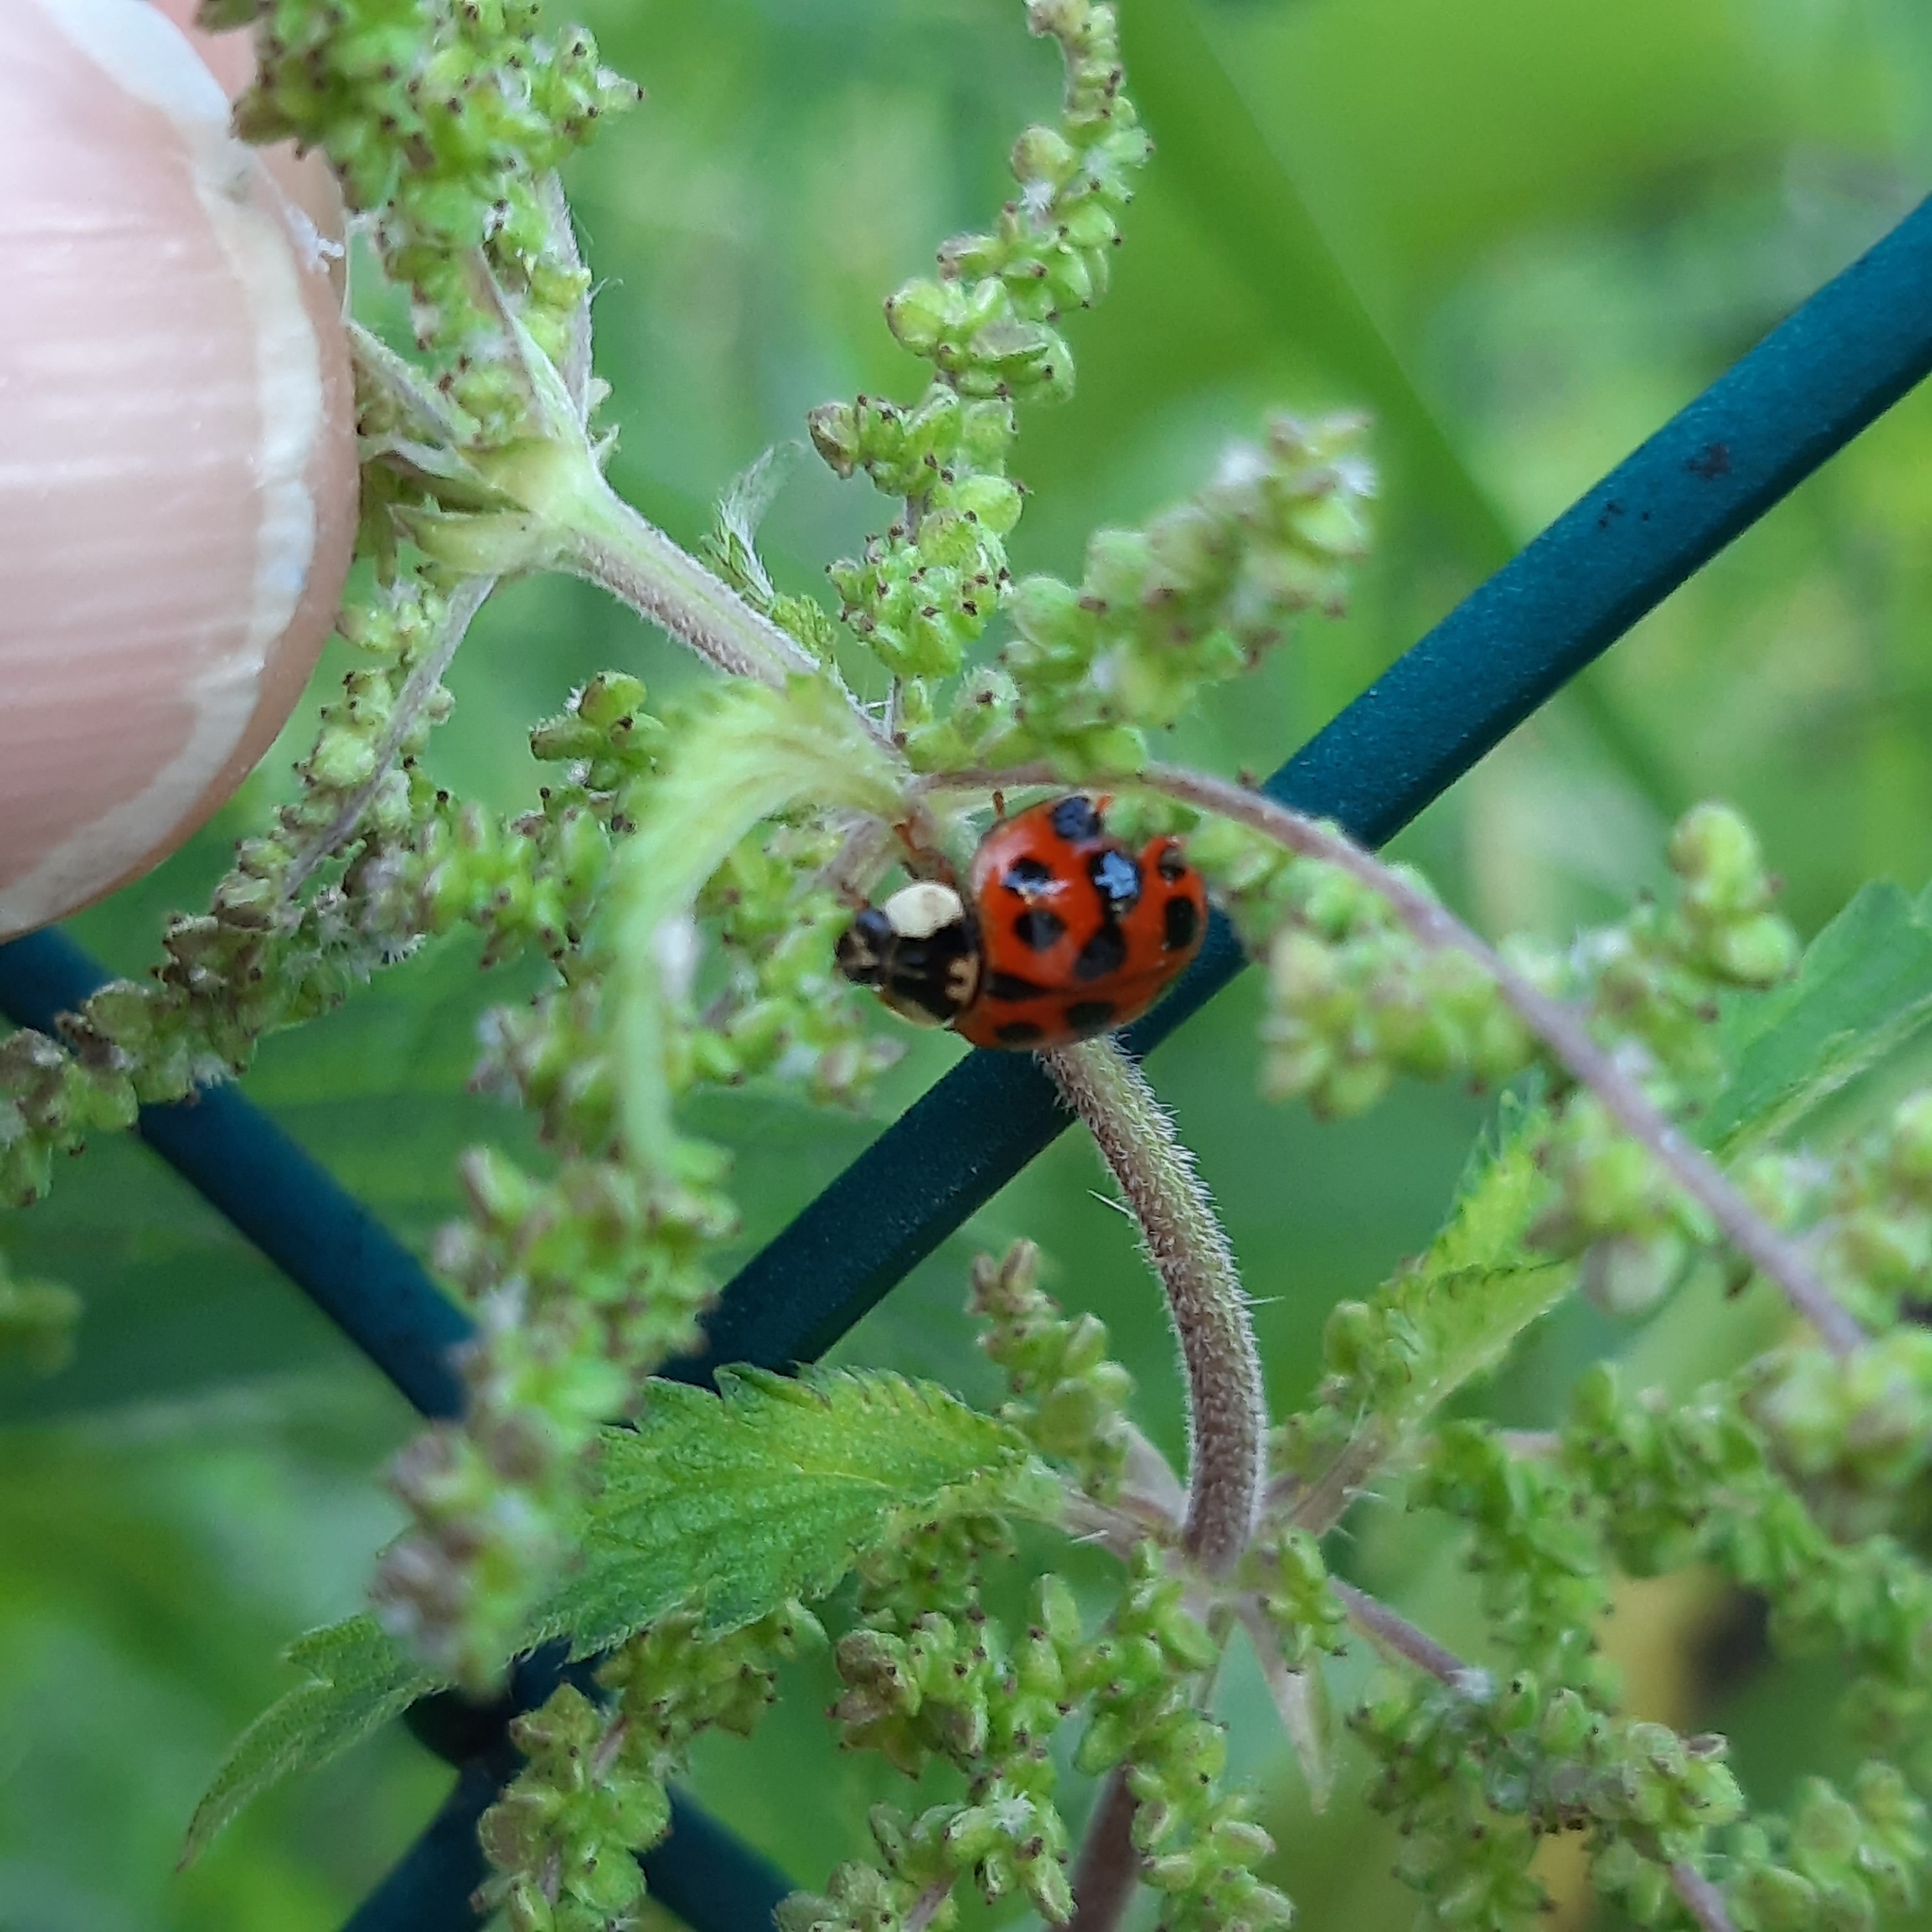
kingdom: Animalia
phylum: Arthropoda
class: Insecta
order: Coleoptera
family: Coccinellidae
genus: Harmonia
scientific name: Harmonia axyridis
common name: Harlequin ladybird
